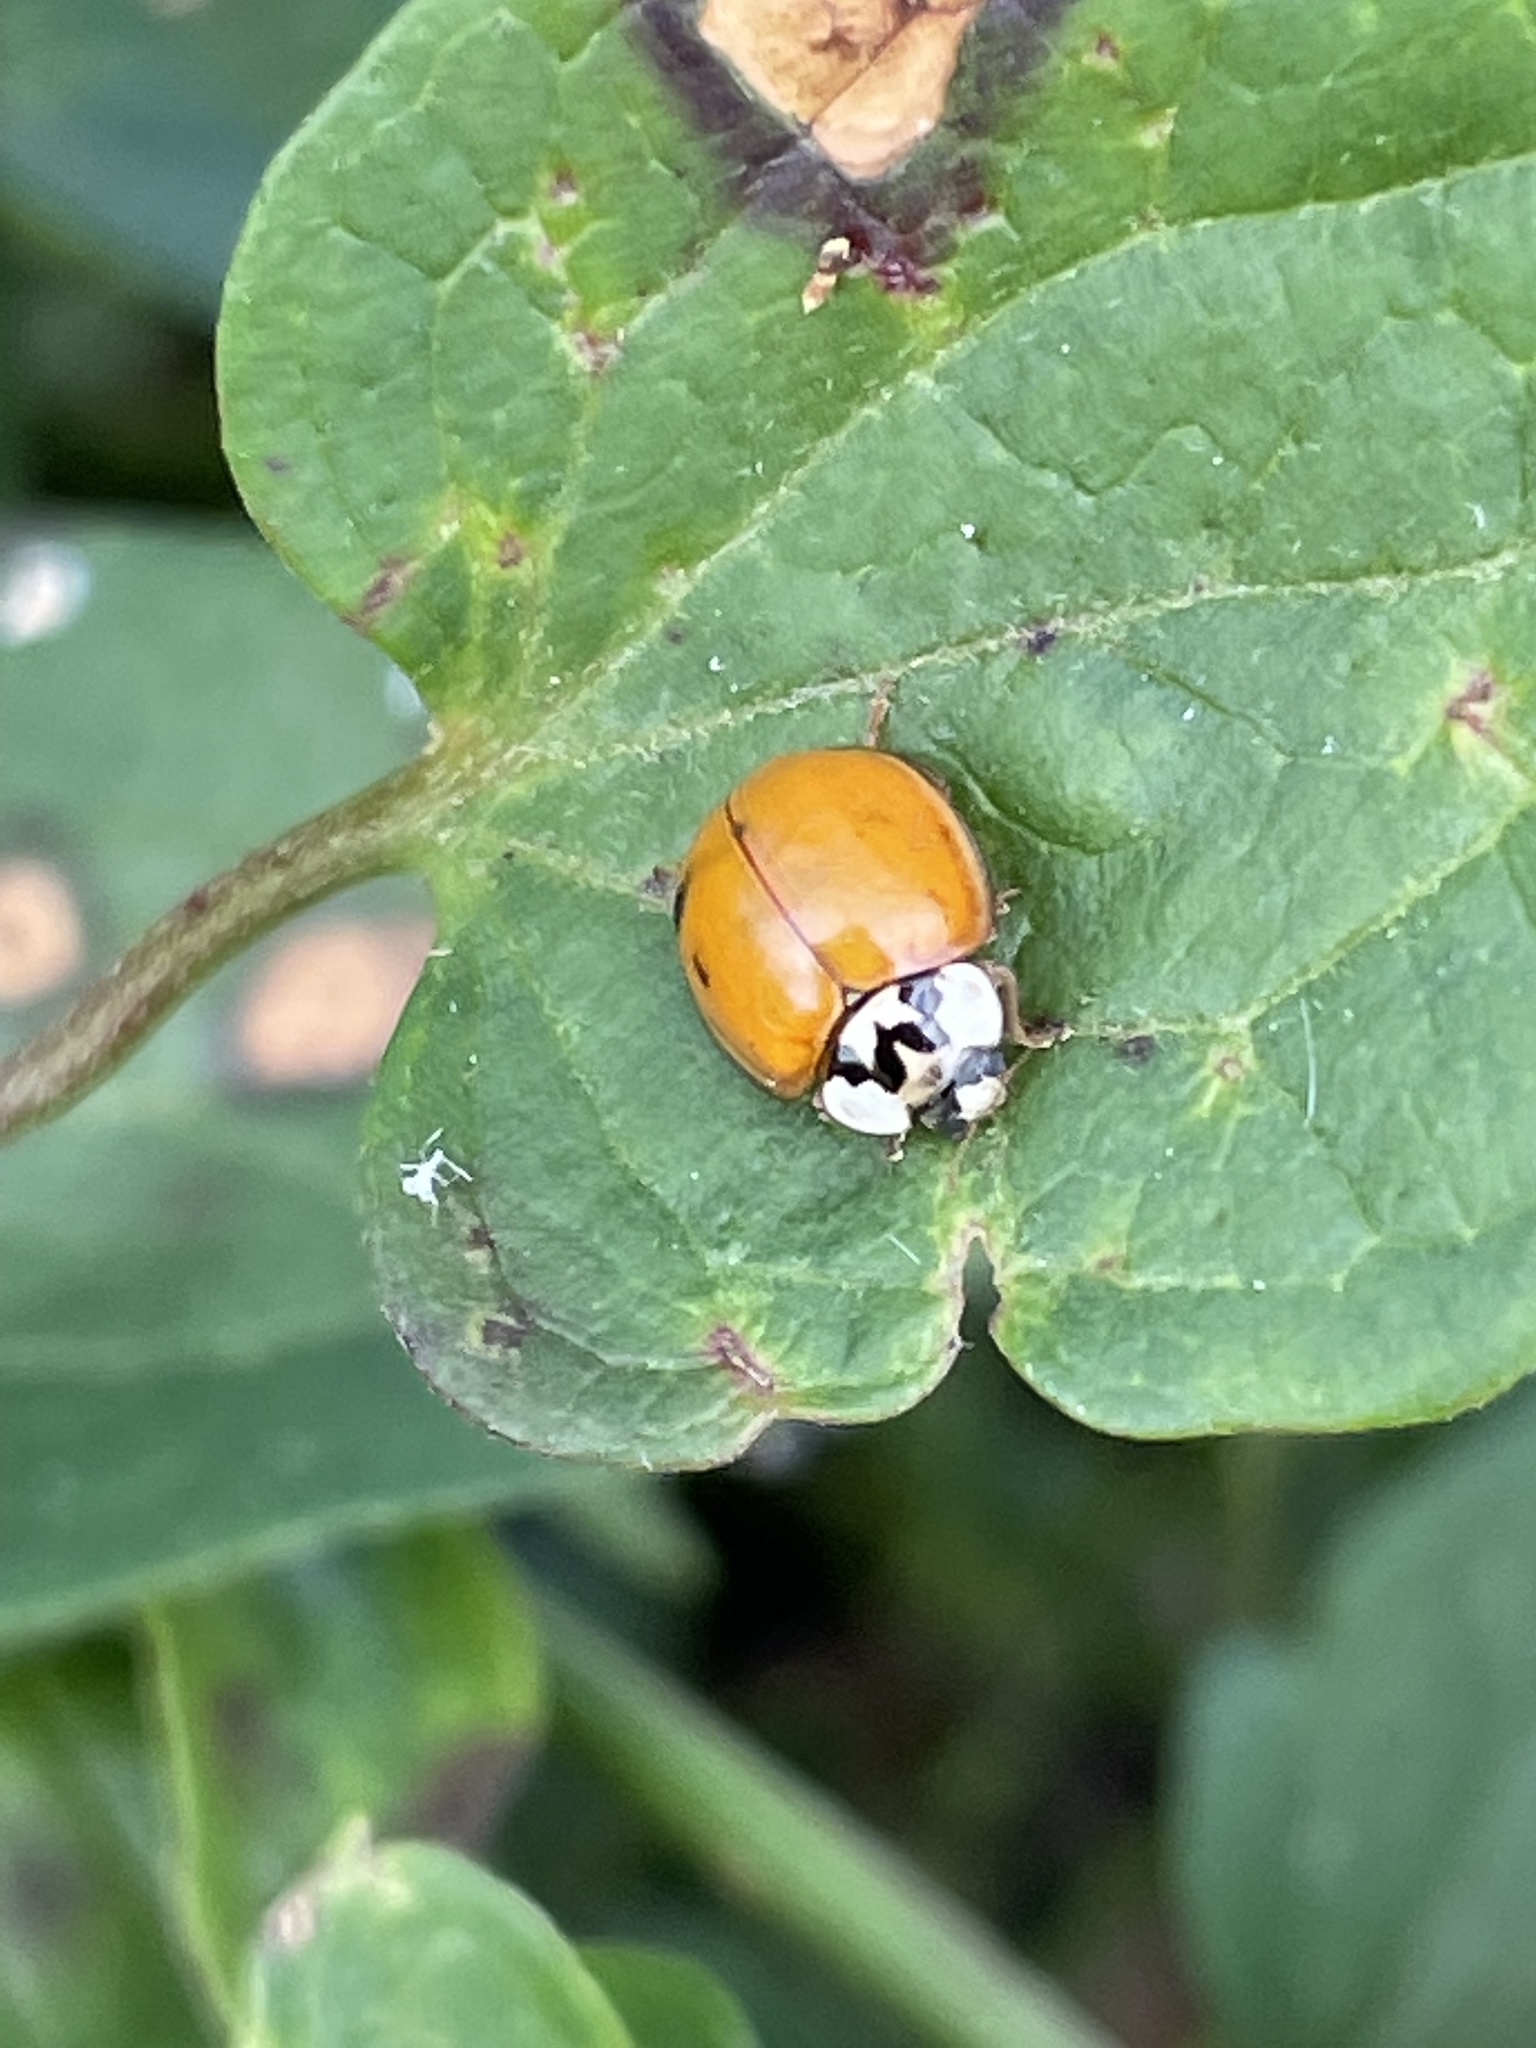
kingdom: Animalia
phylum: Arthropoda
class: Insecta
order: Coleoptera
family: Coccinellidae
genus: Harmonia
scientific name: Harmonia axyridis
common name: Harlequin ladybird
